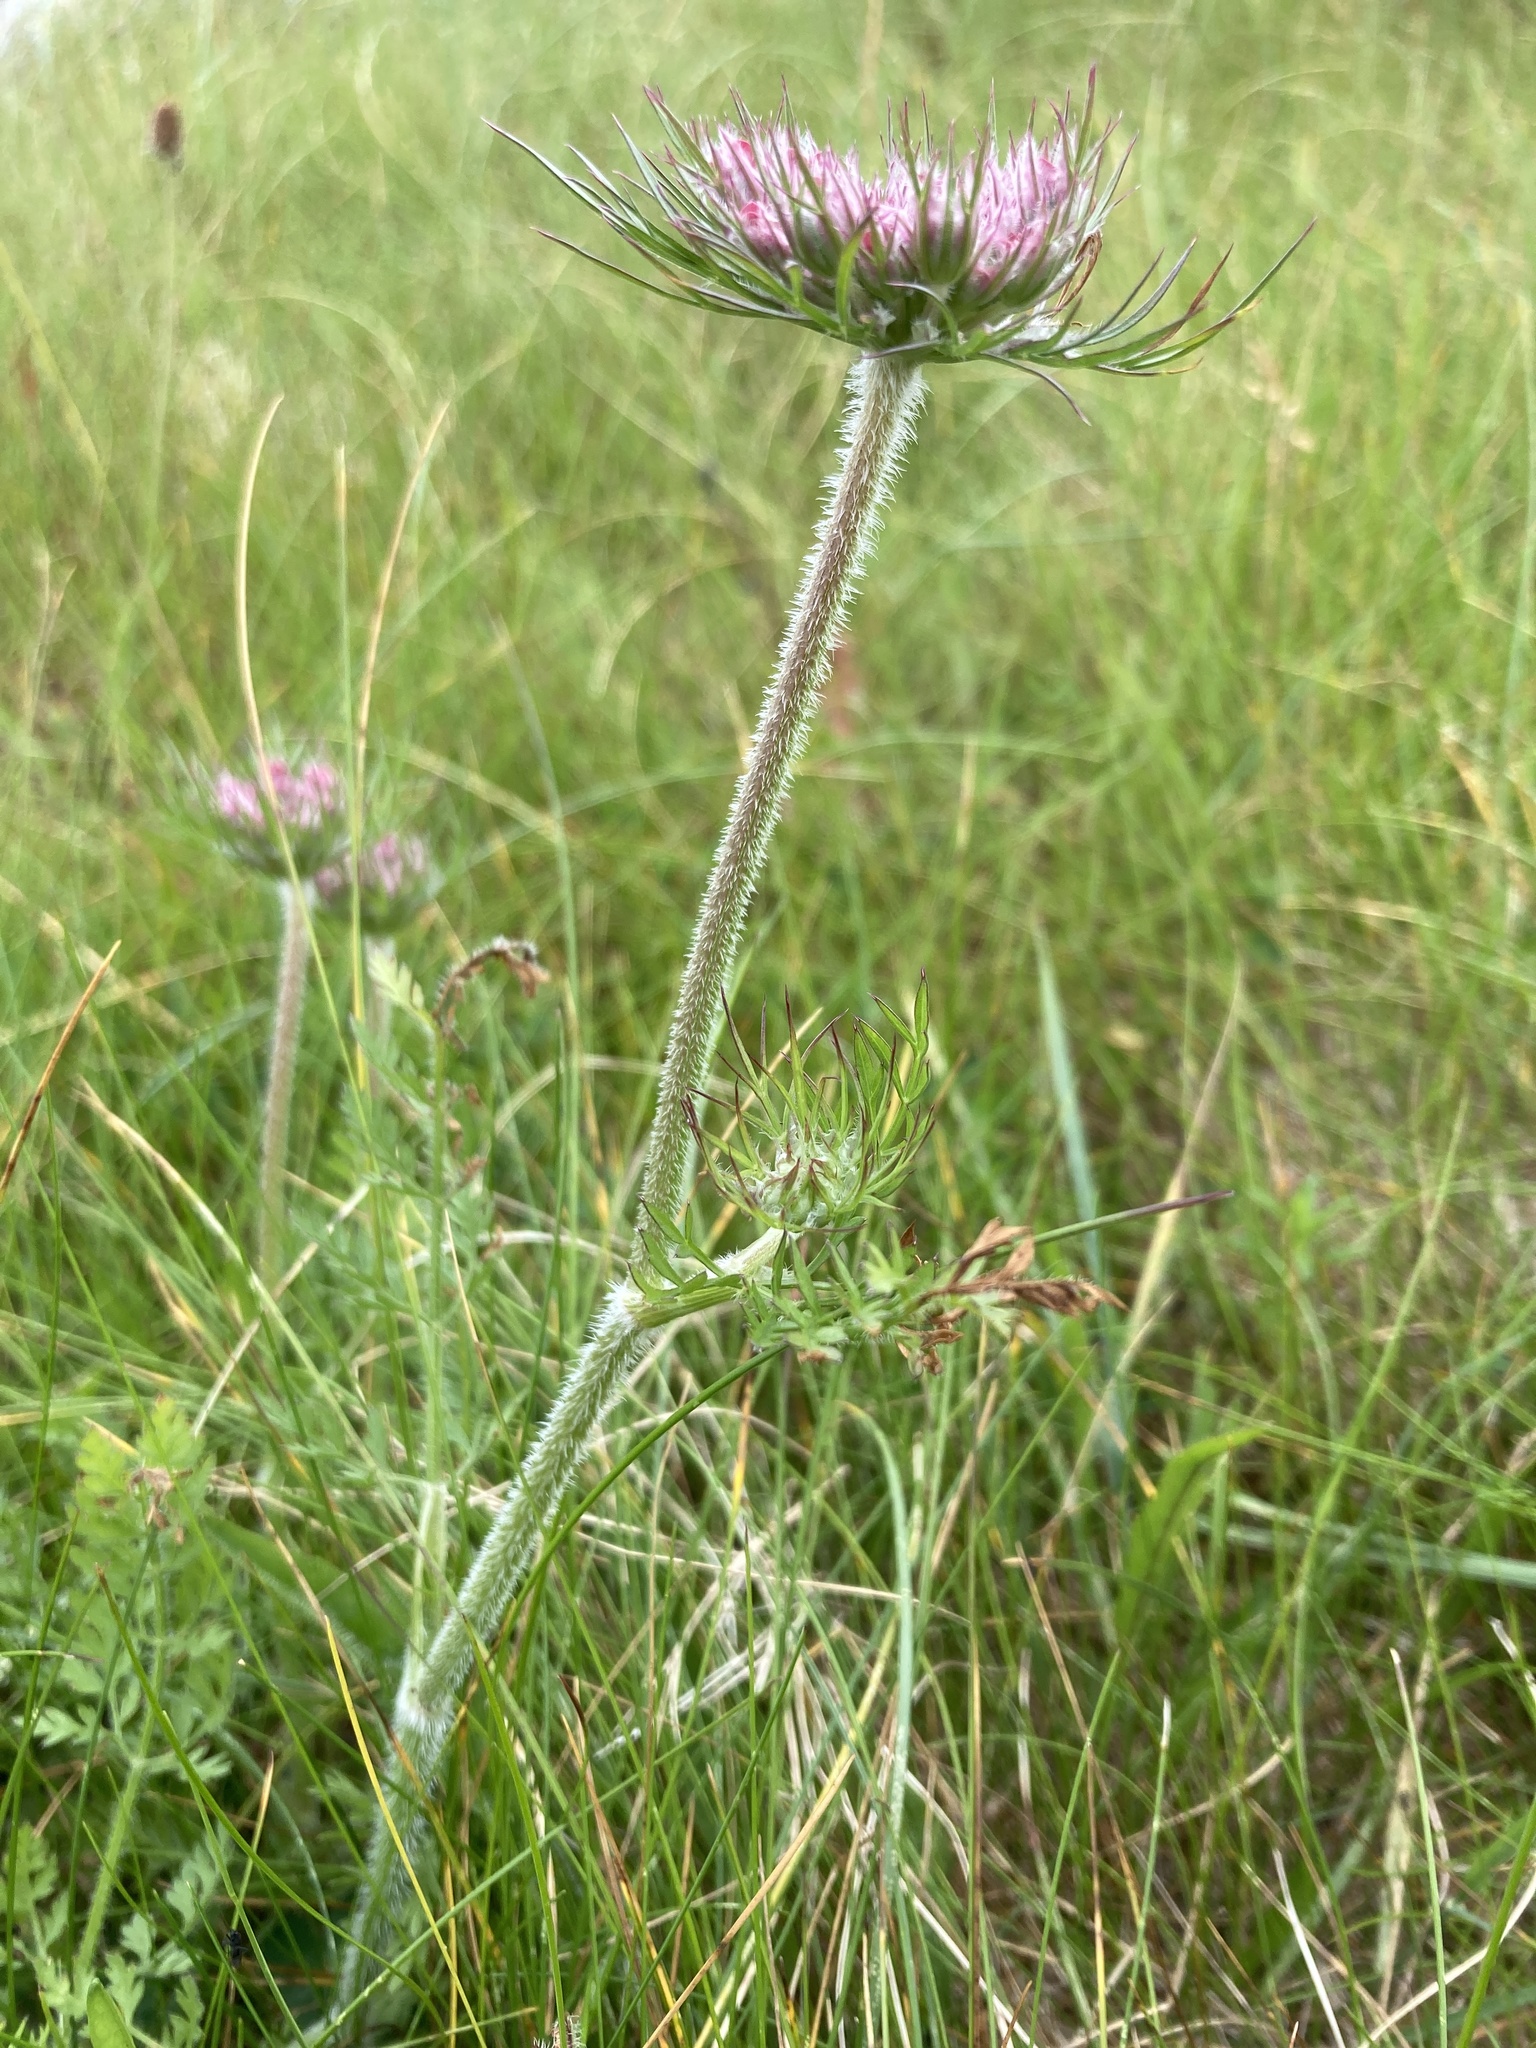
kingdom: Plantae
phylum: Tracheophyta
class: Magnoliopsida
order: Apiales
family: Apiaceae
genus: Daucus
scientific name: Daucus carota
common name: Wild carrot
